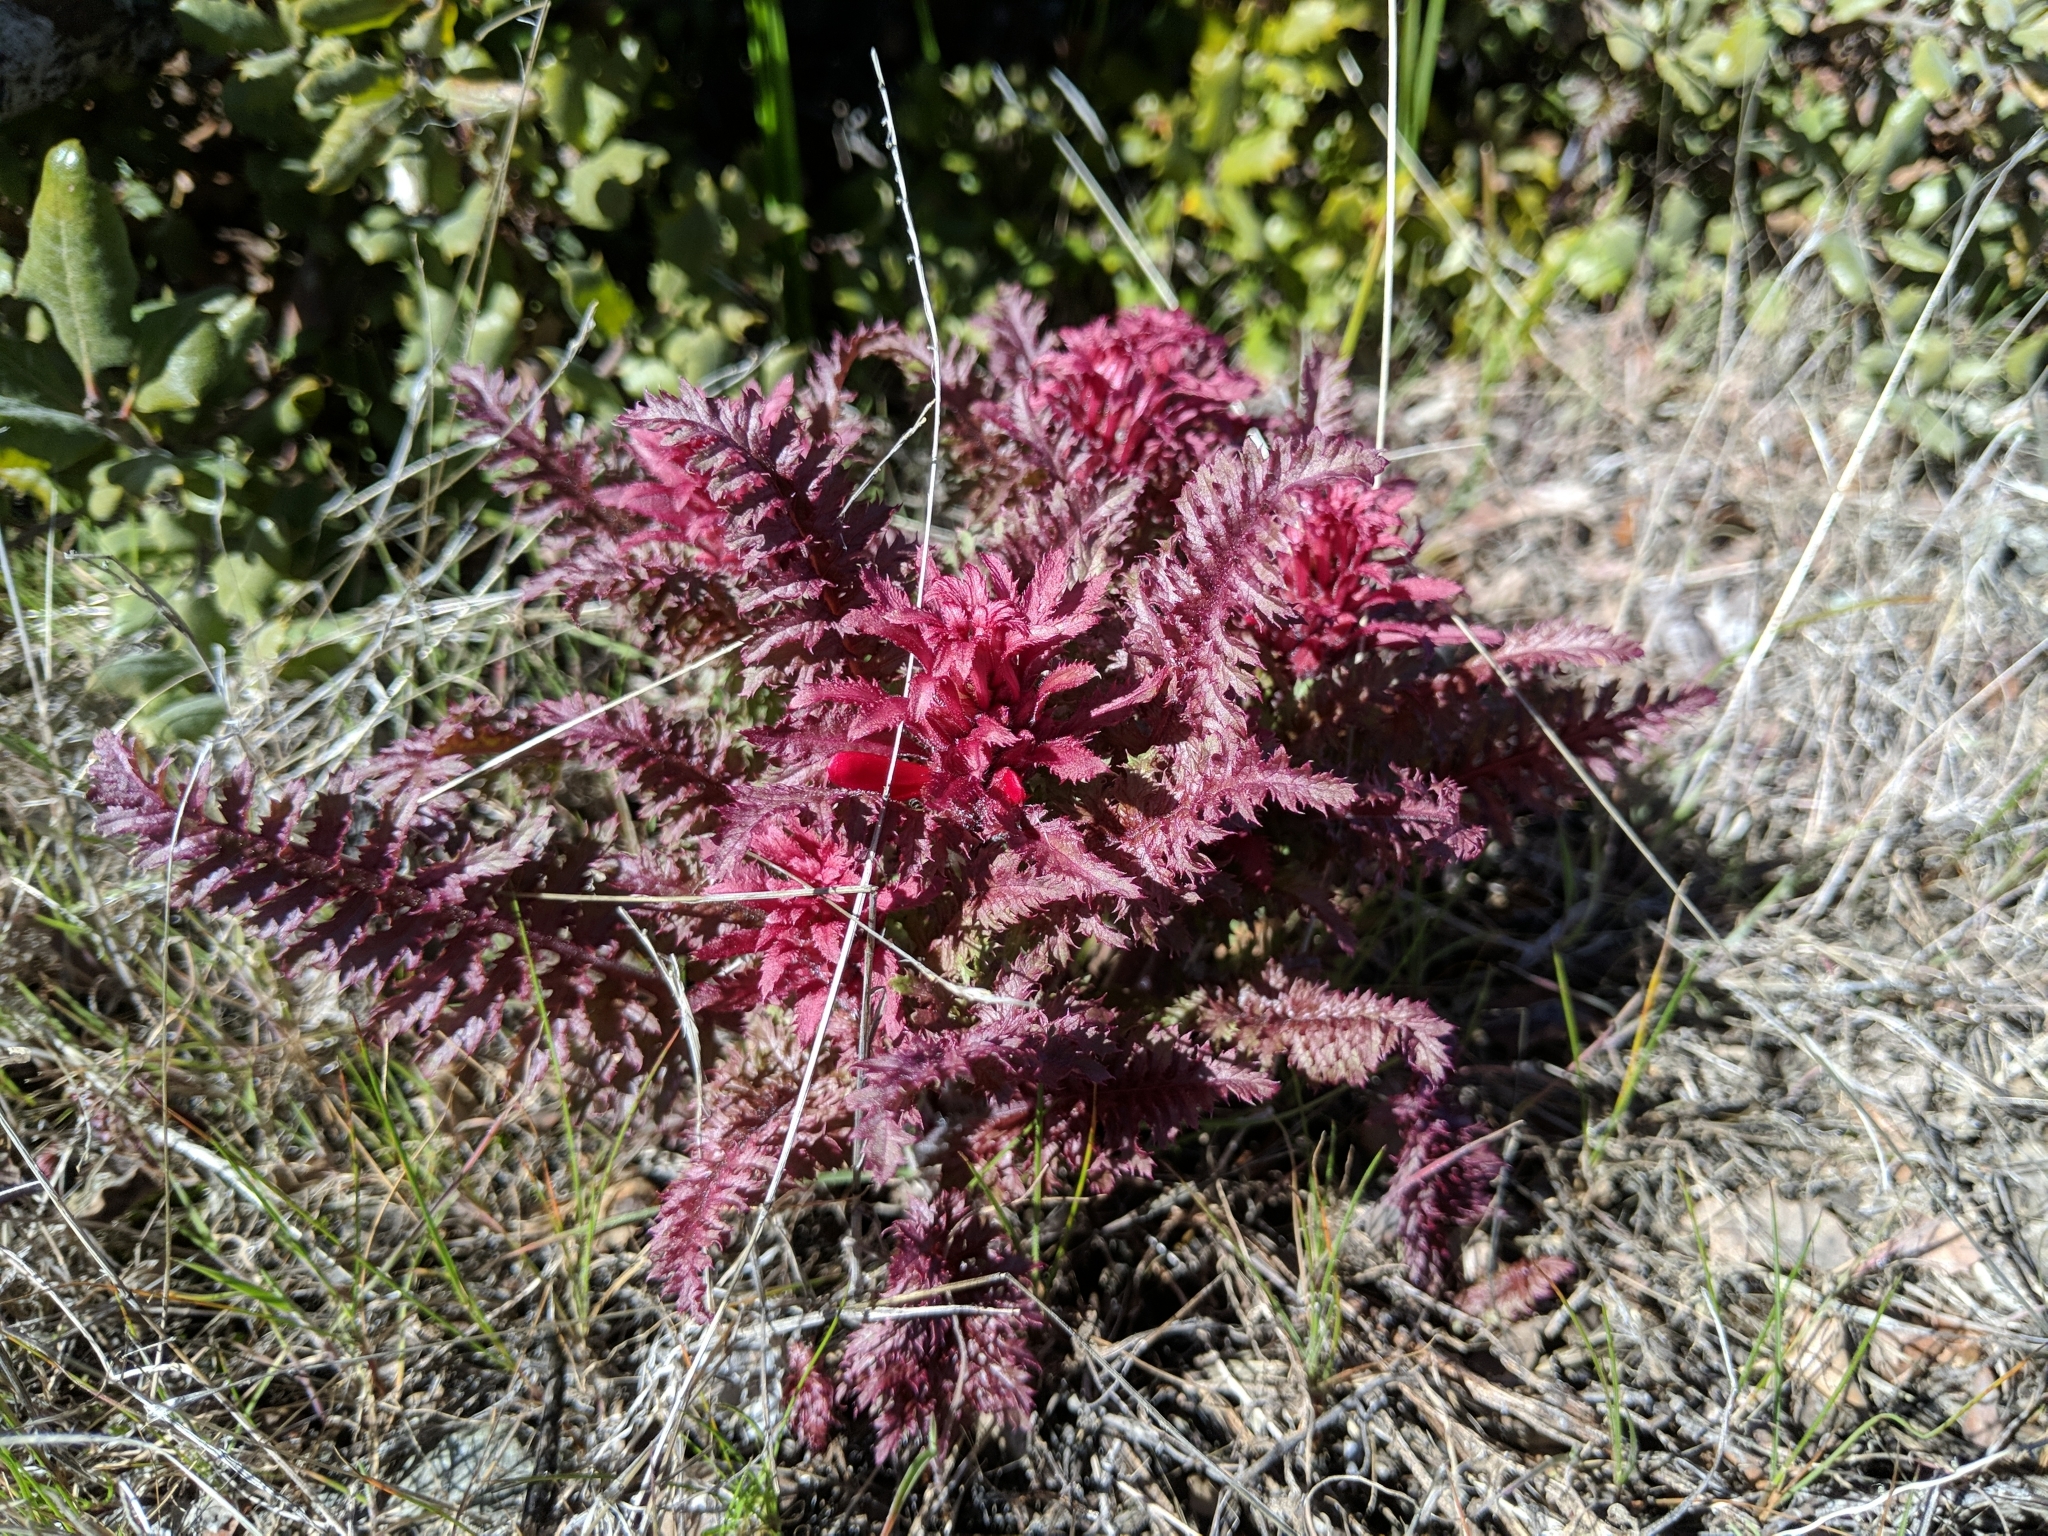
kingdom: Plantae
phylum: Tracheophyta
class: Magnoliopsida
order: Lamiales
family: Orobanchaceae
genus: Pedicularis
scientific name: Pedicularis densiflora
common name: Indian warrior
